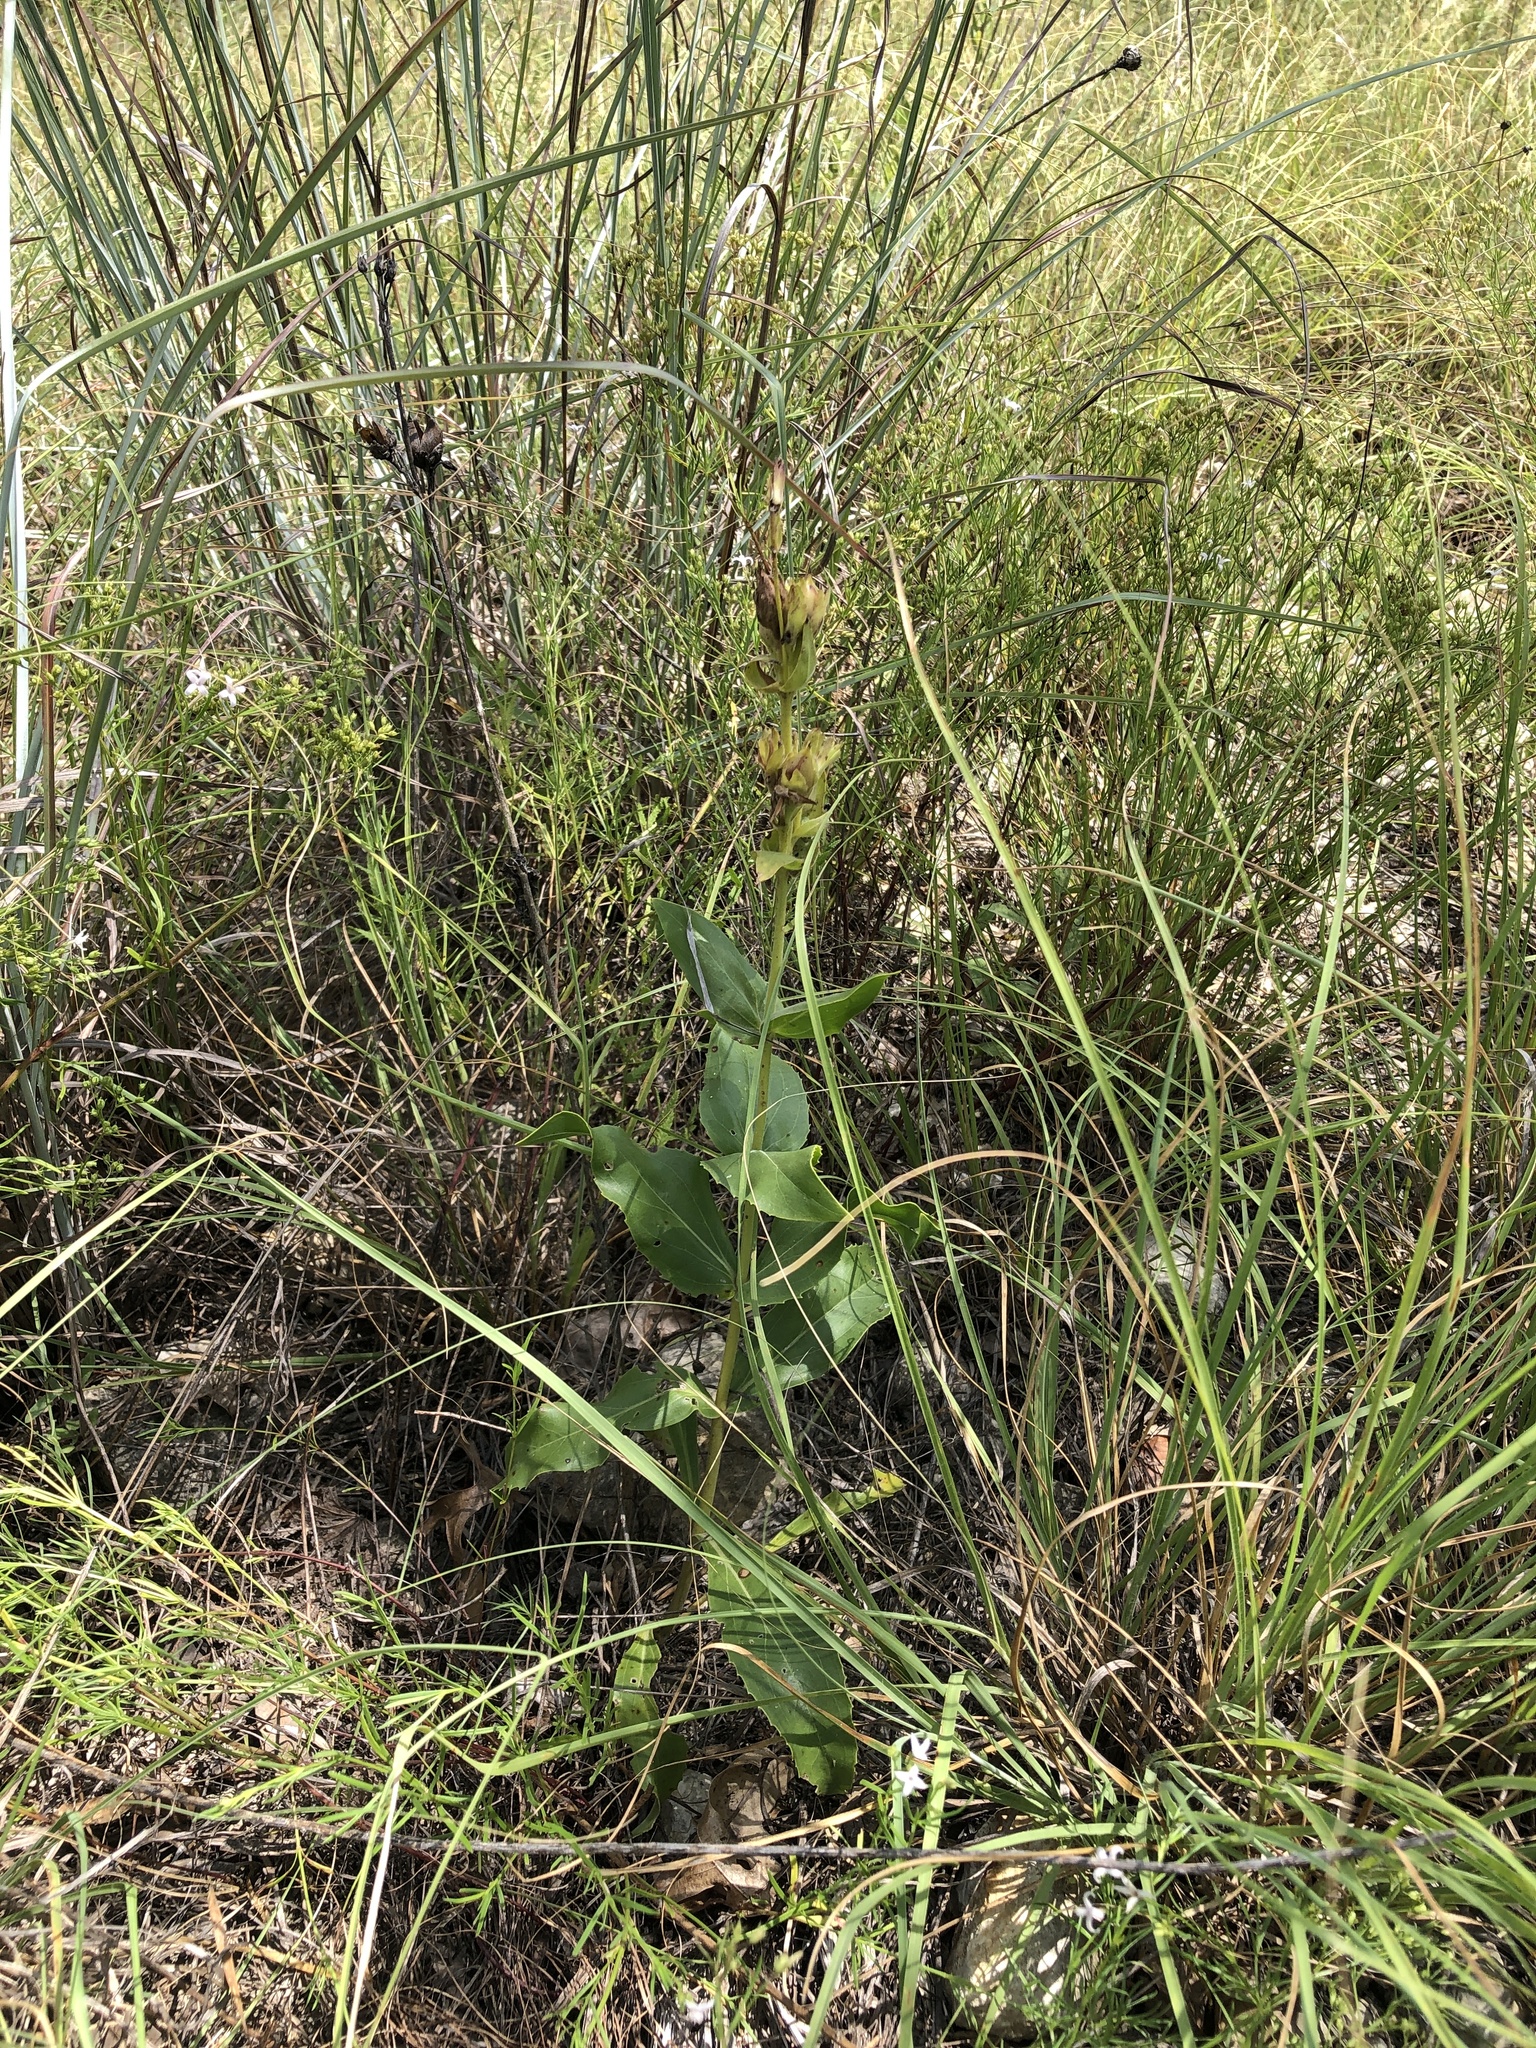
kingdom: Plantae
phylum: Tracheophyta
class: Magnoliopsida
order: Lamiales
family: Plantaginaceae
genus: Penstemon
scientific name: Penstemon cobaea
